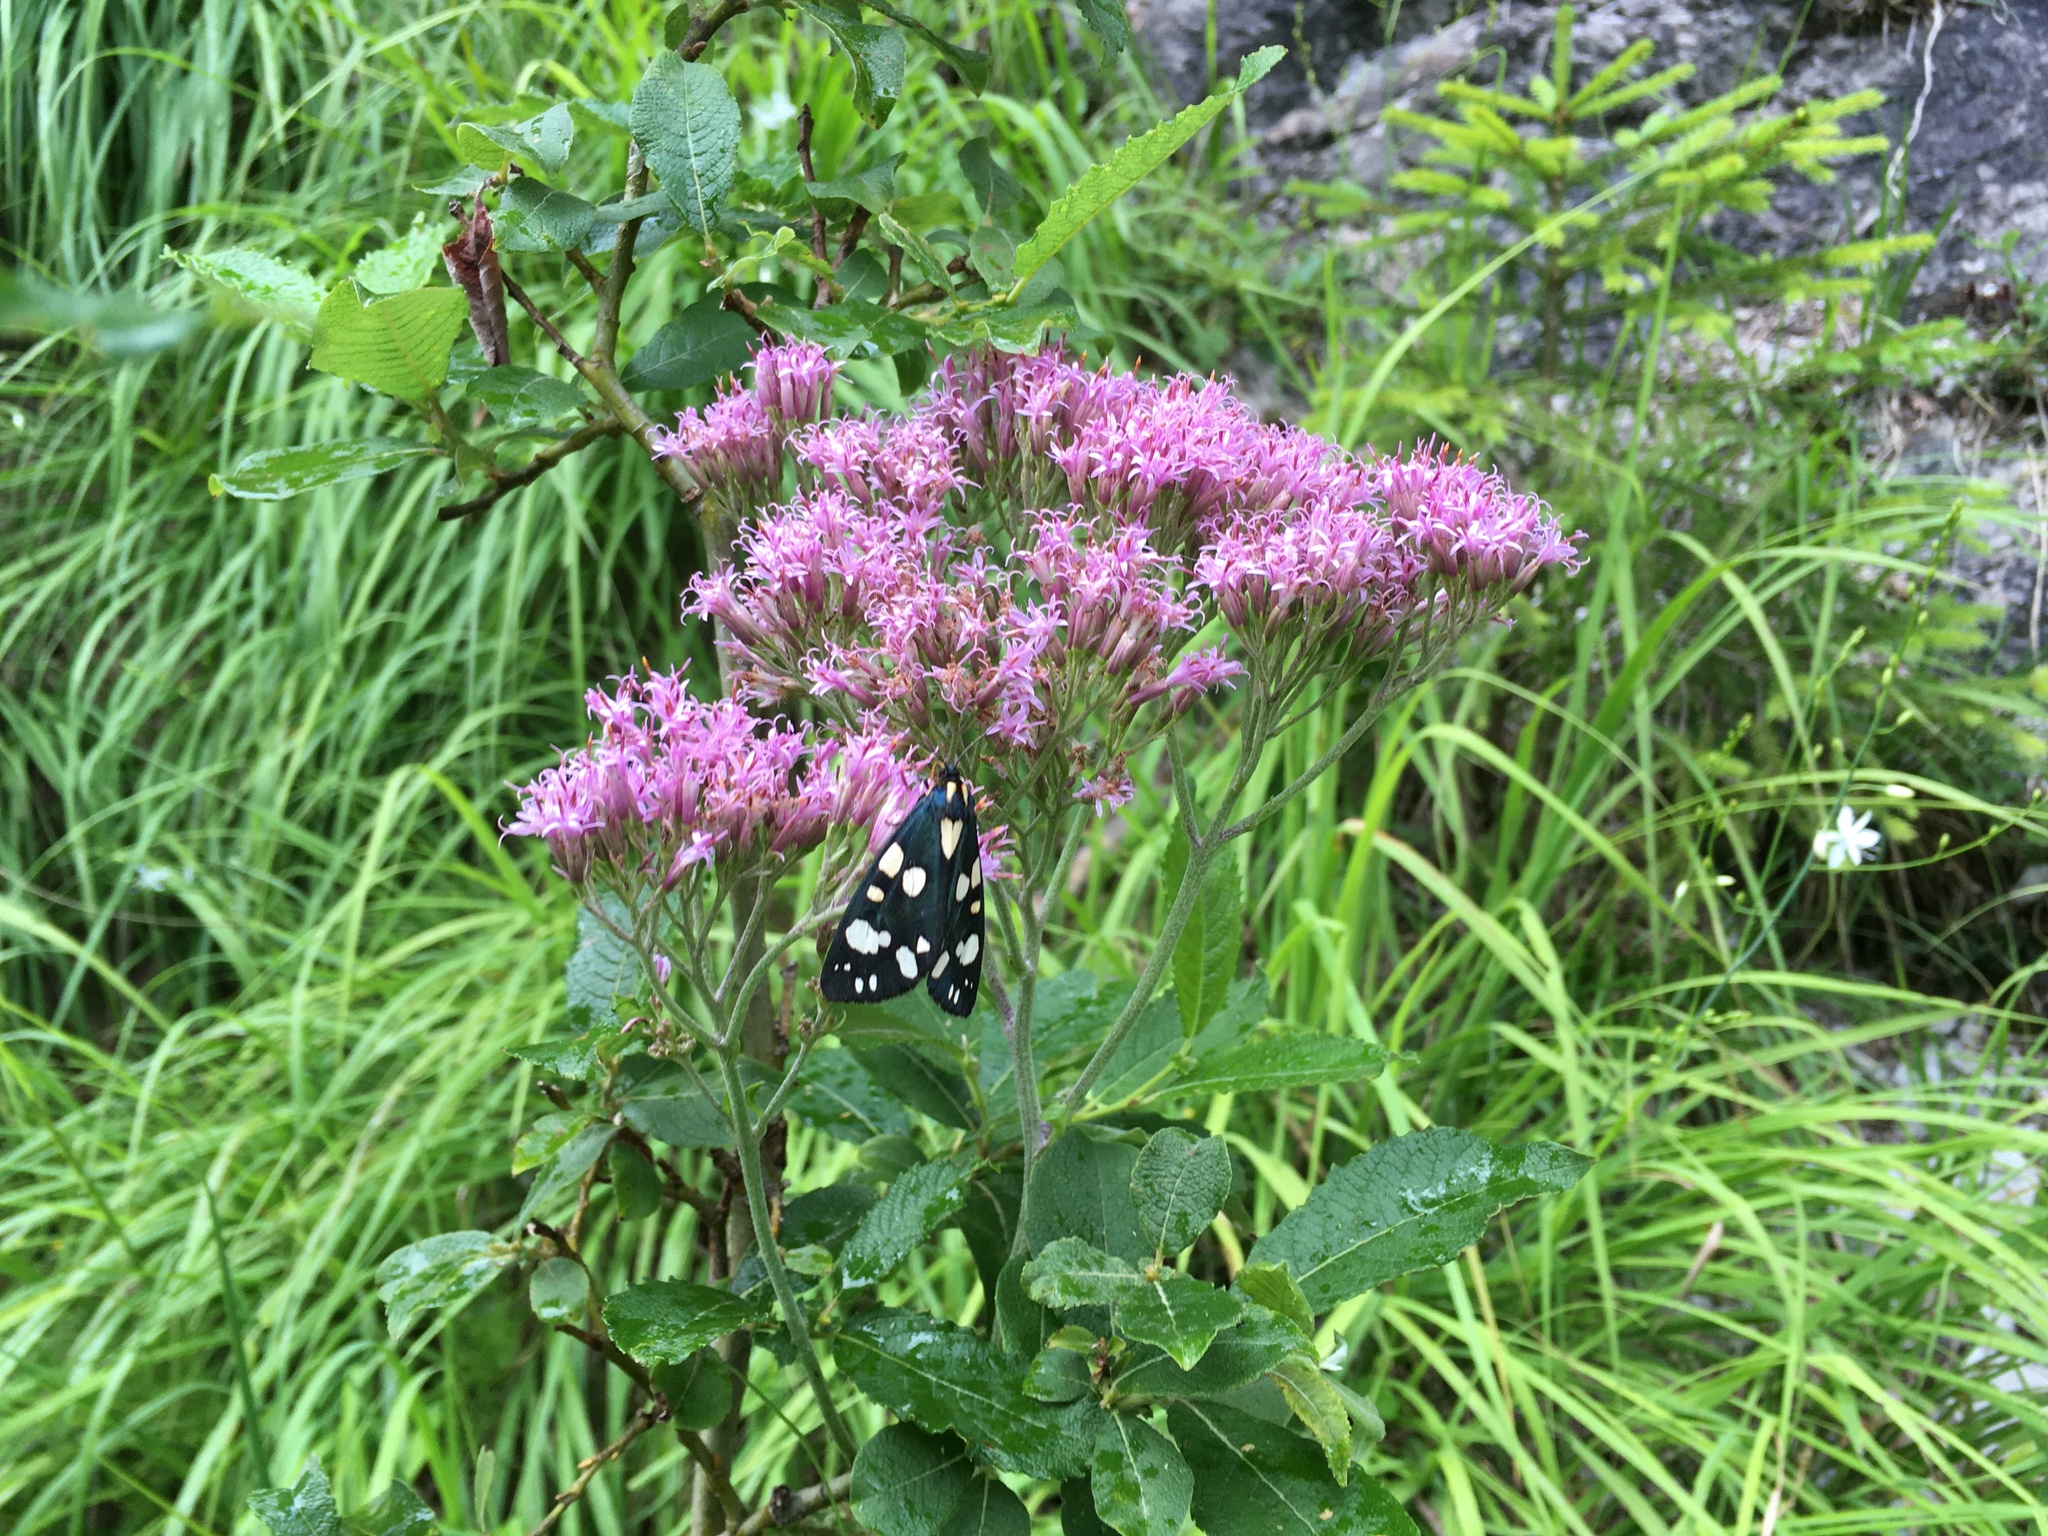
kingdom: Animalia
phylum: Arthropoda
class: Insecta
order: Lepidoptera
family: Erebidae
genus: Callimorpha
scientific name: Callimorpha dominula
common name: Scarlet tiger
